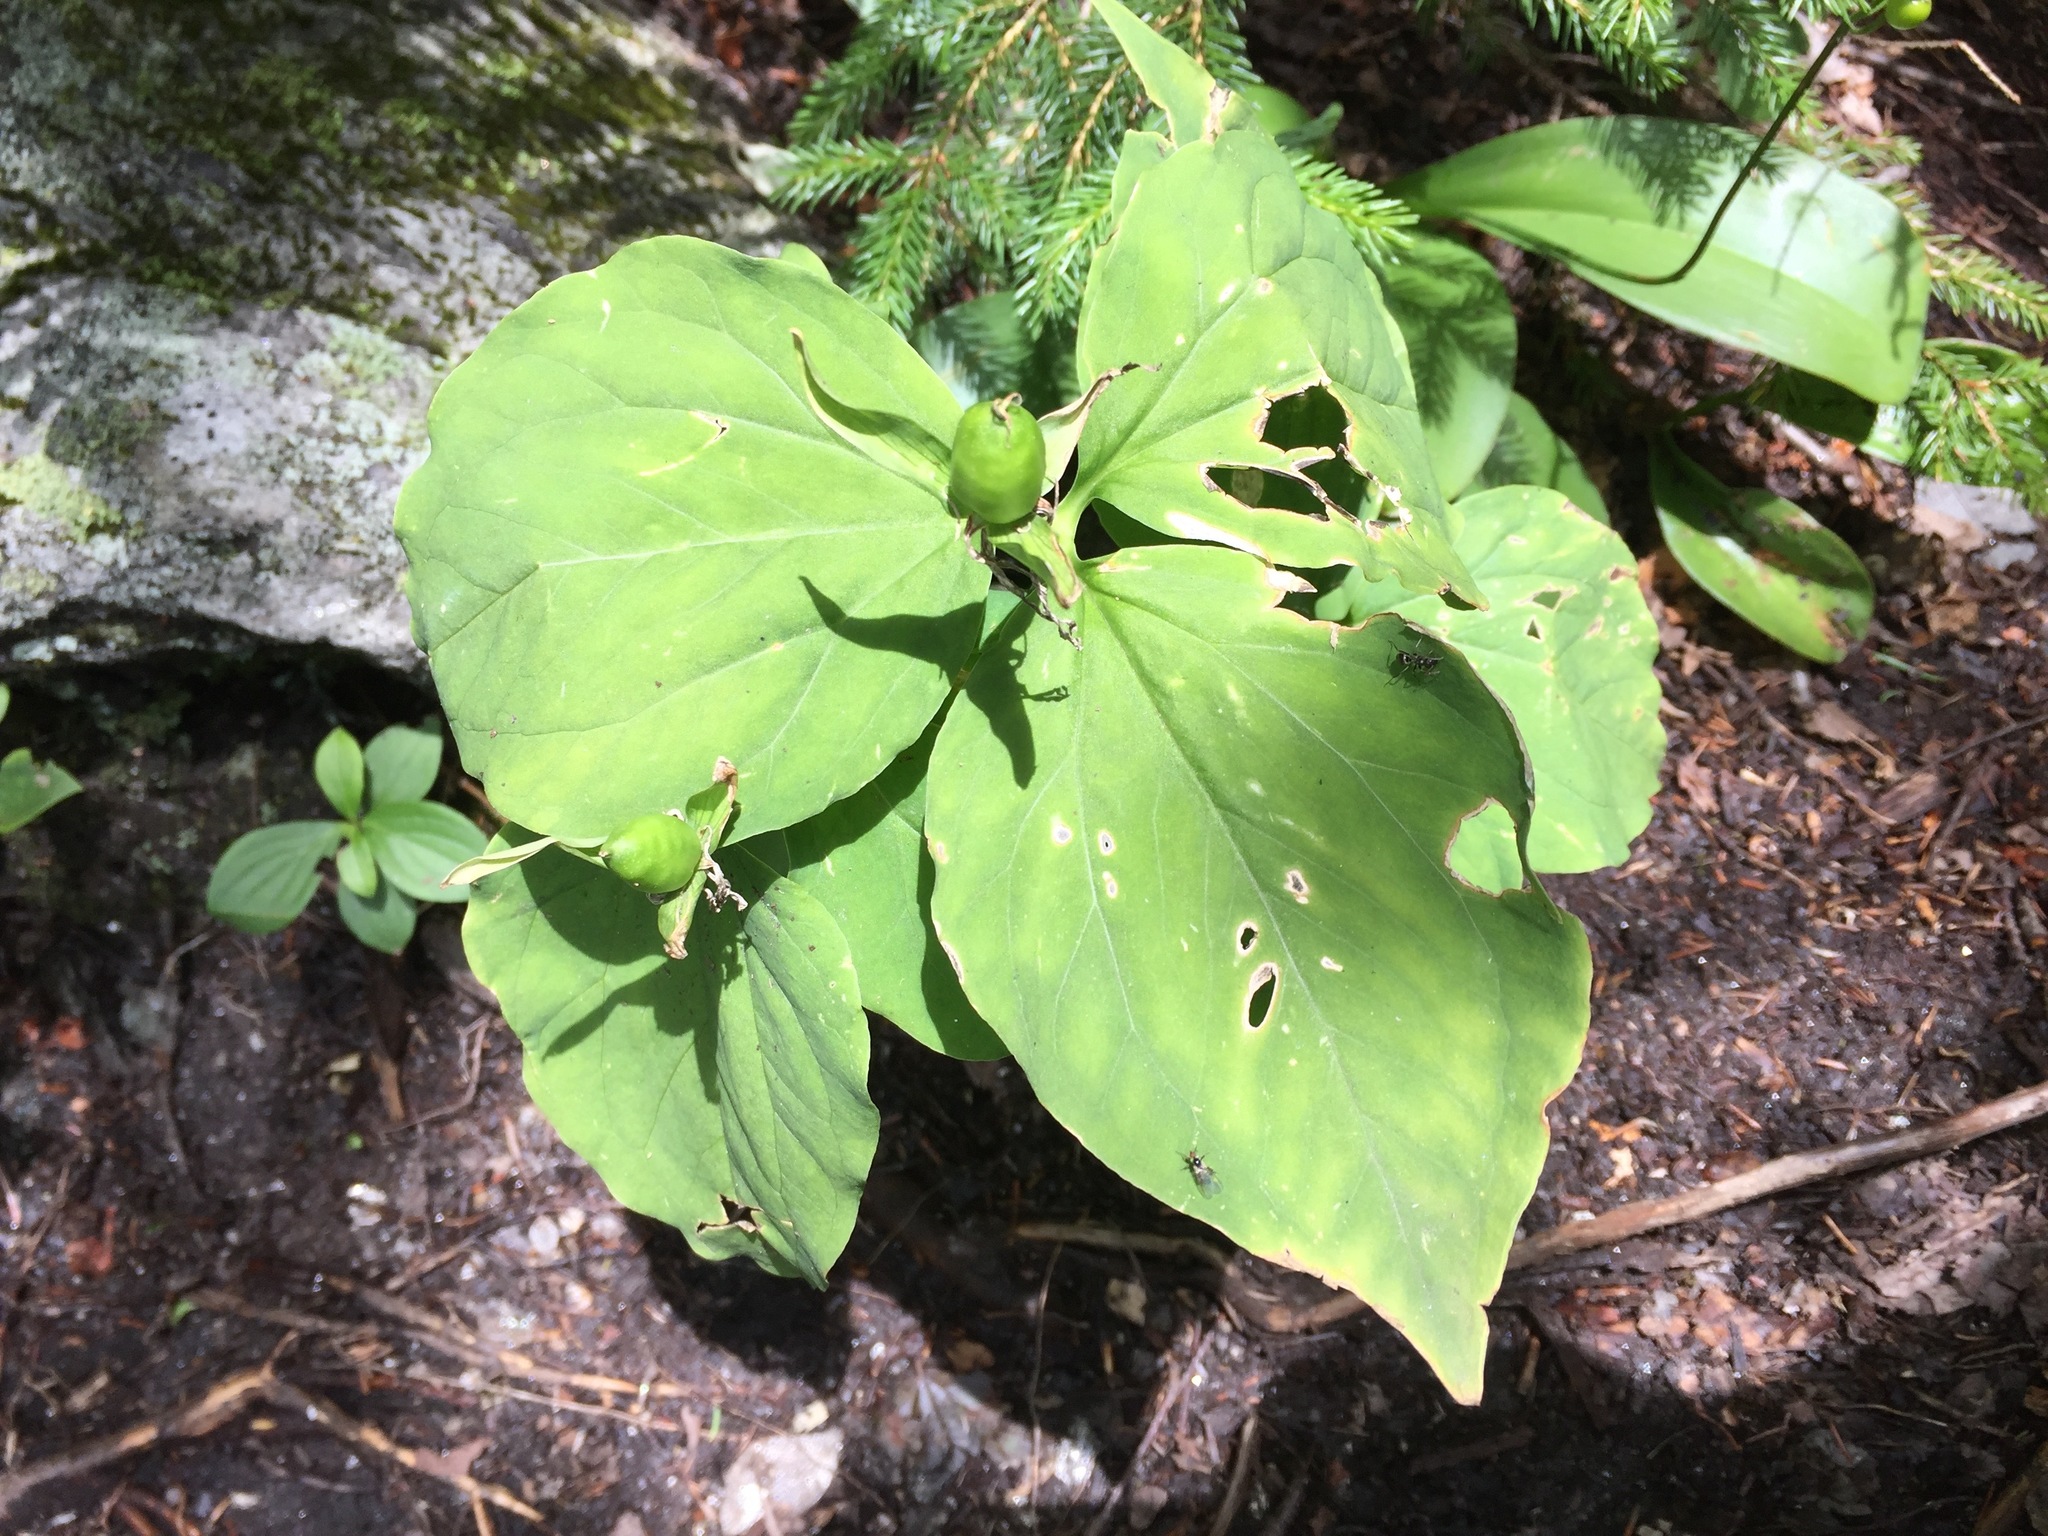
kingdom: Plantae
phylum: Tracheophyta
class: Liliopsida
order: Liliales
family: Melanthiaceae
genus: Trillium
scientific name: Trillium undulatum
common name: Paint trillium
